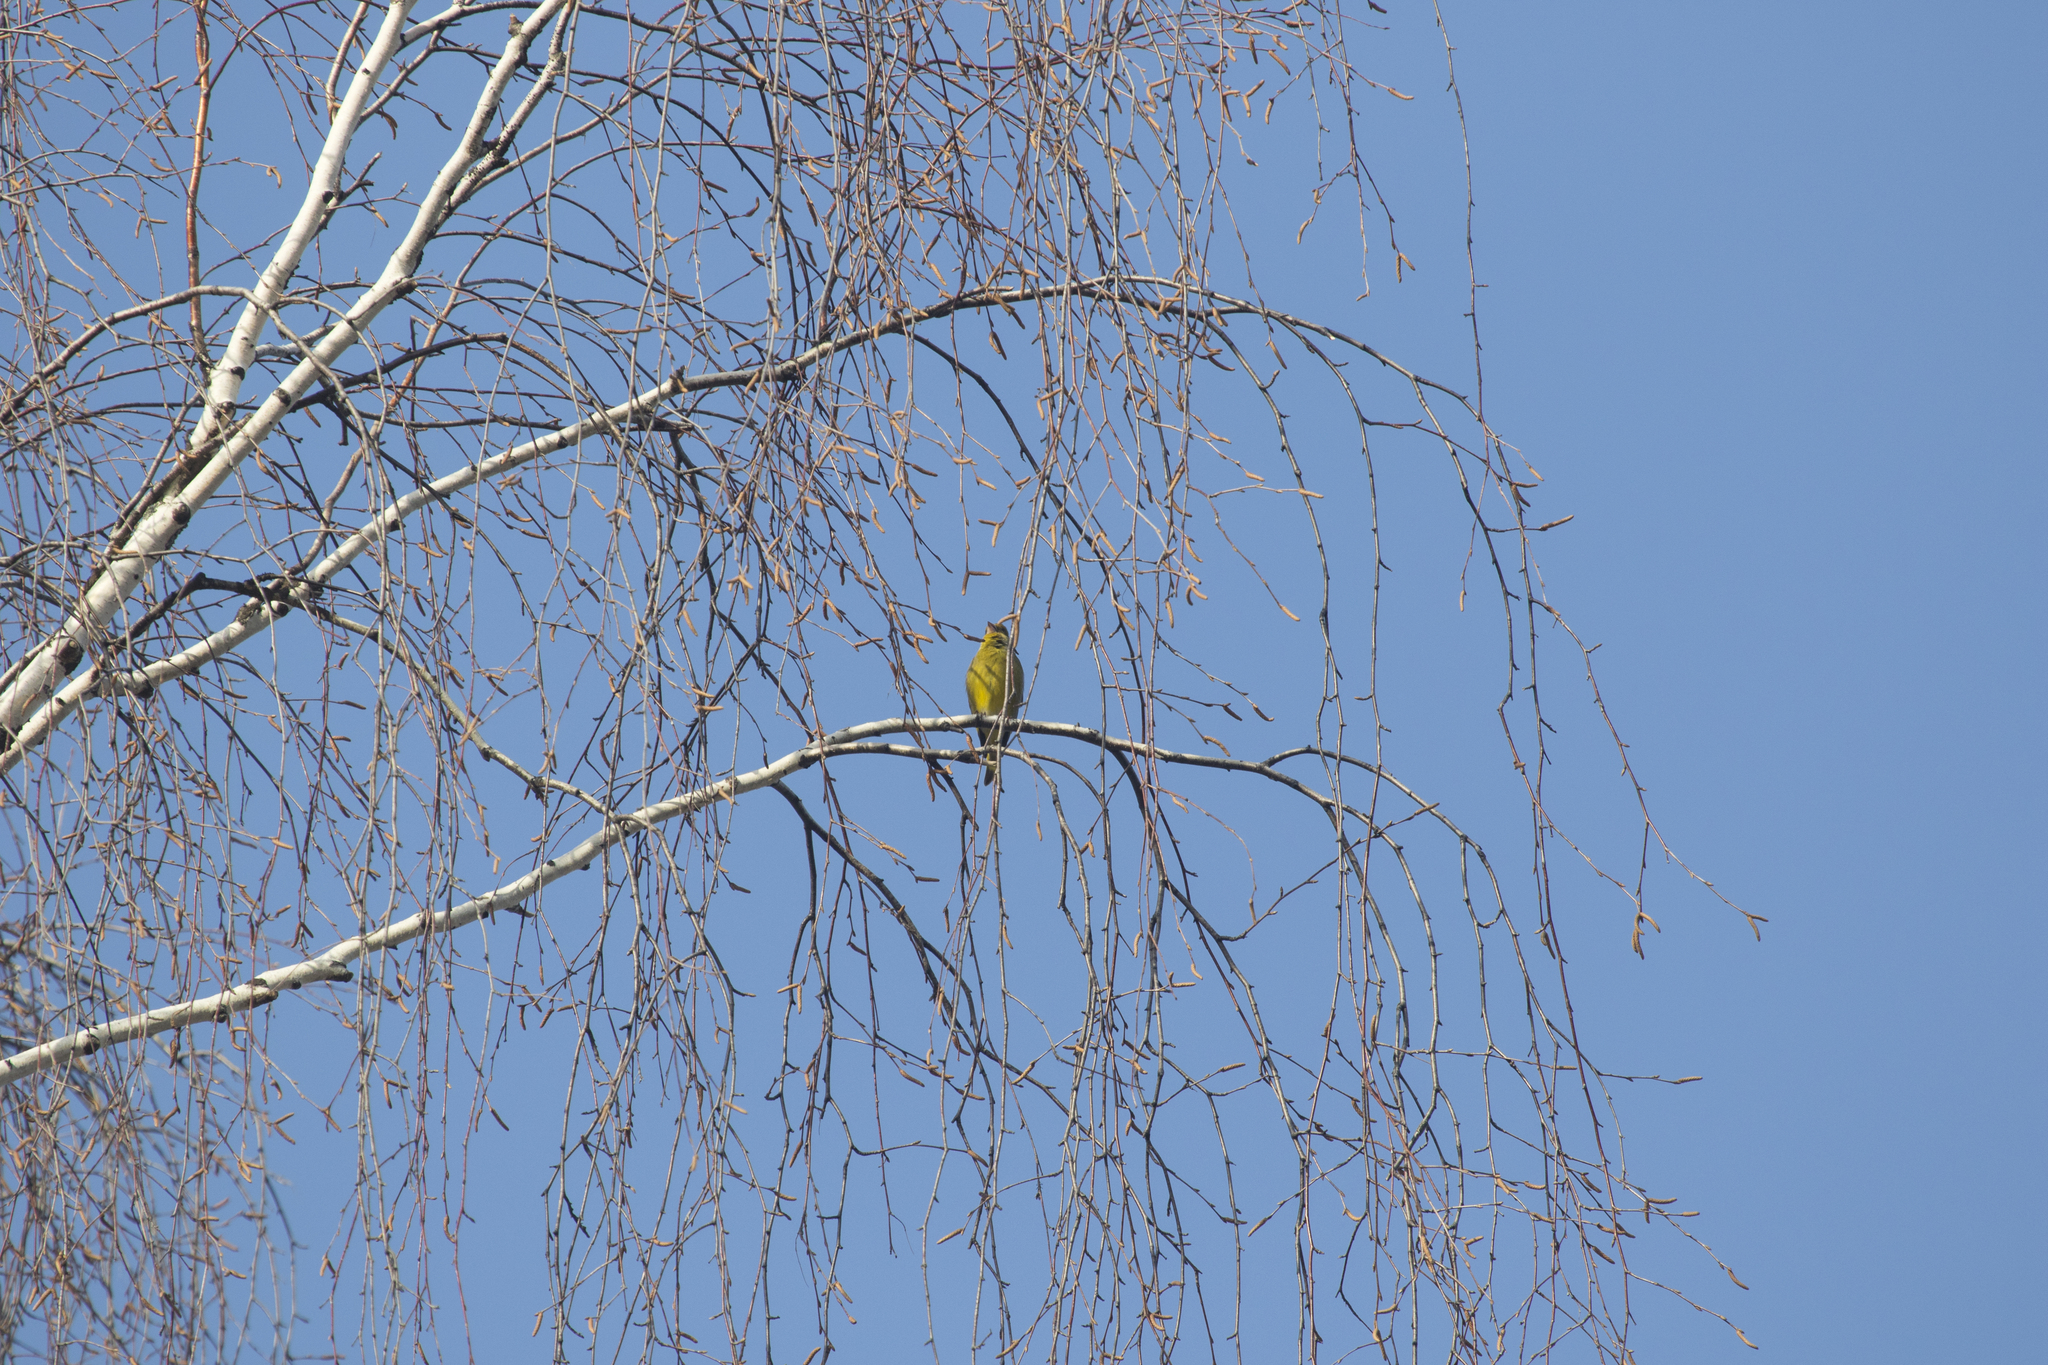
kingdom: Plantae
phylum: Tracheophyta
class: Liliopsida
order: Poales
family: Poaceae
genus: Chloris
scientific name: Chloris chloris
